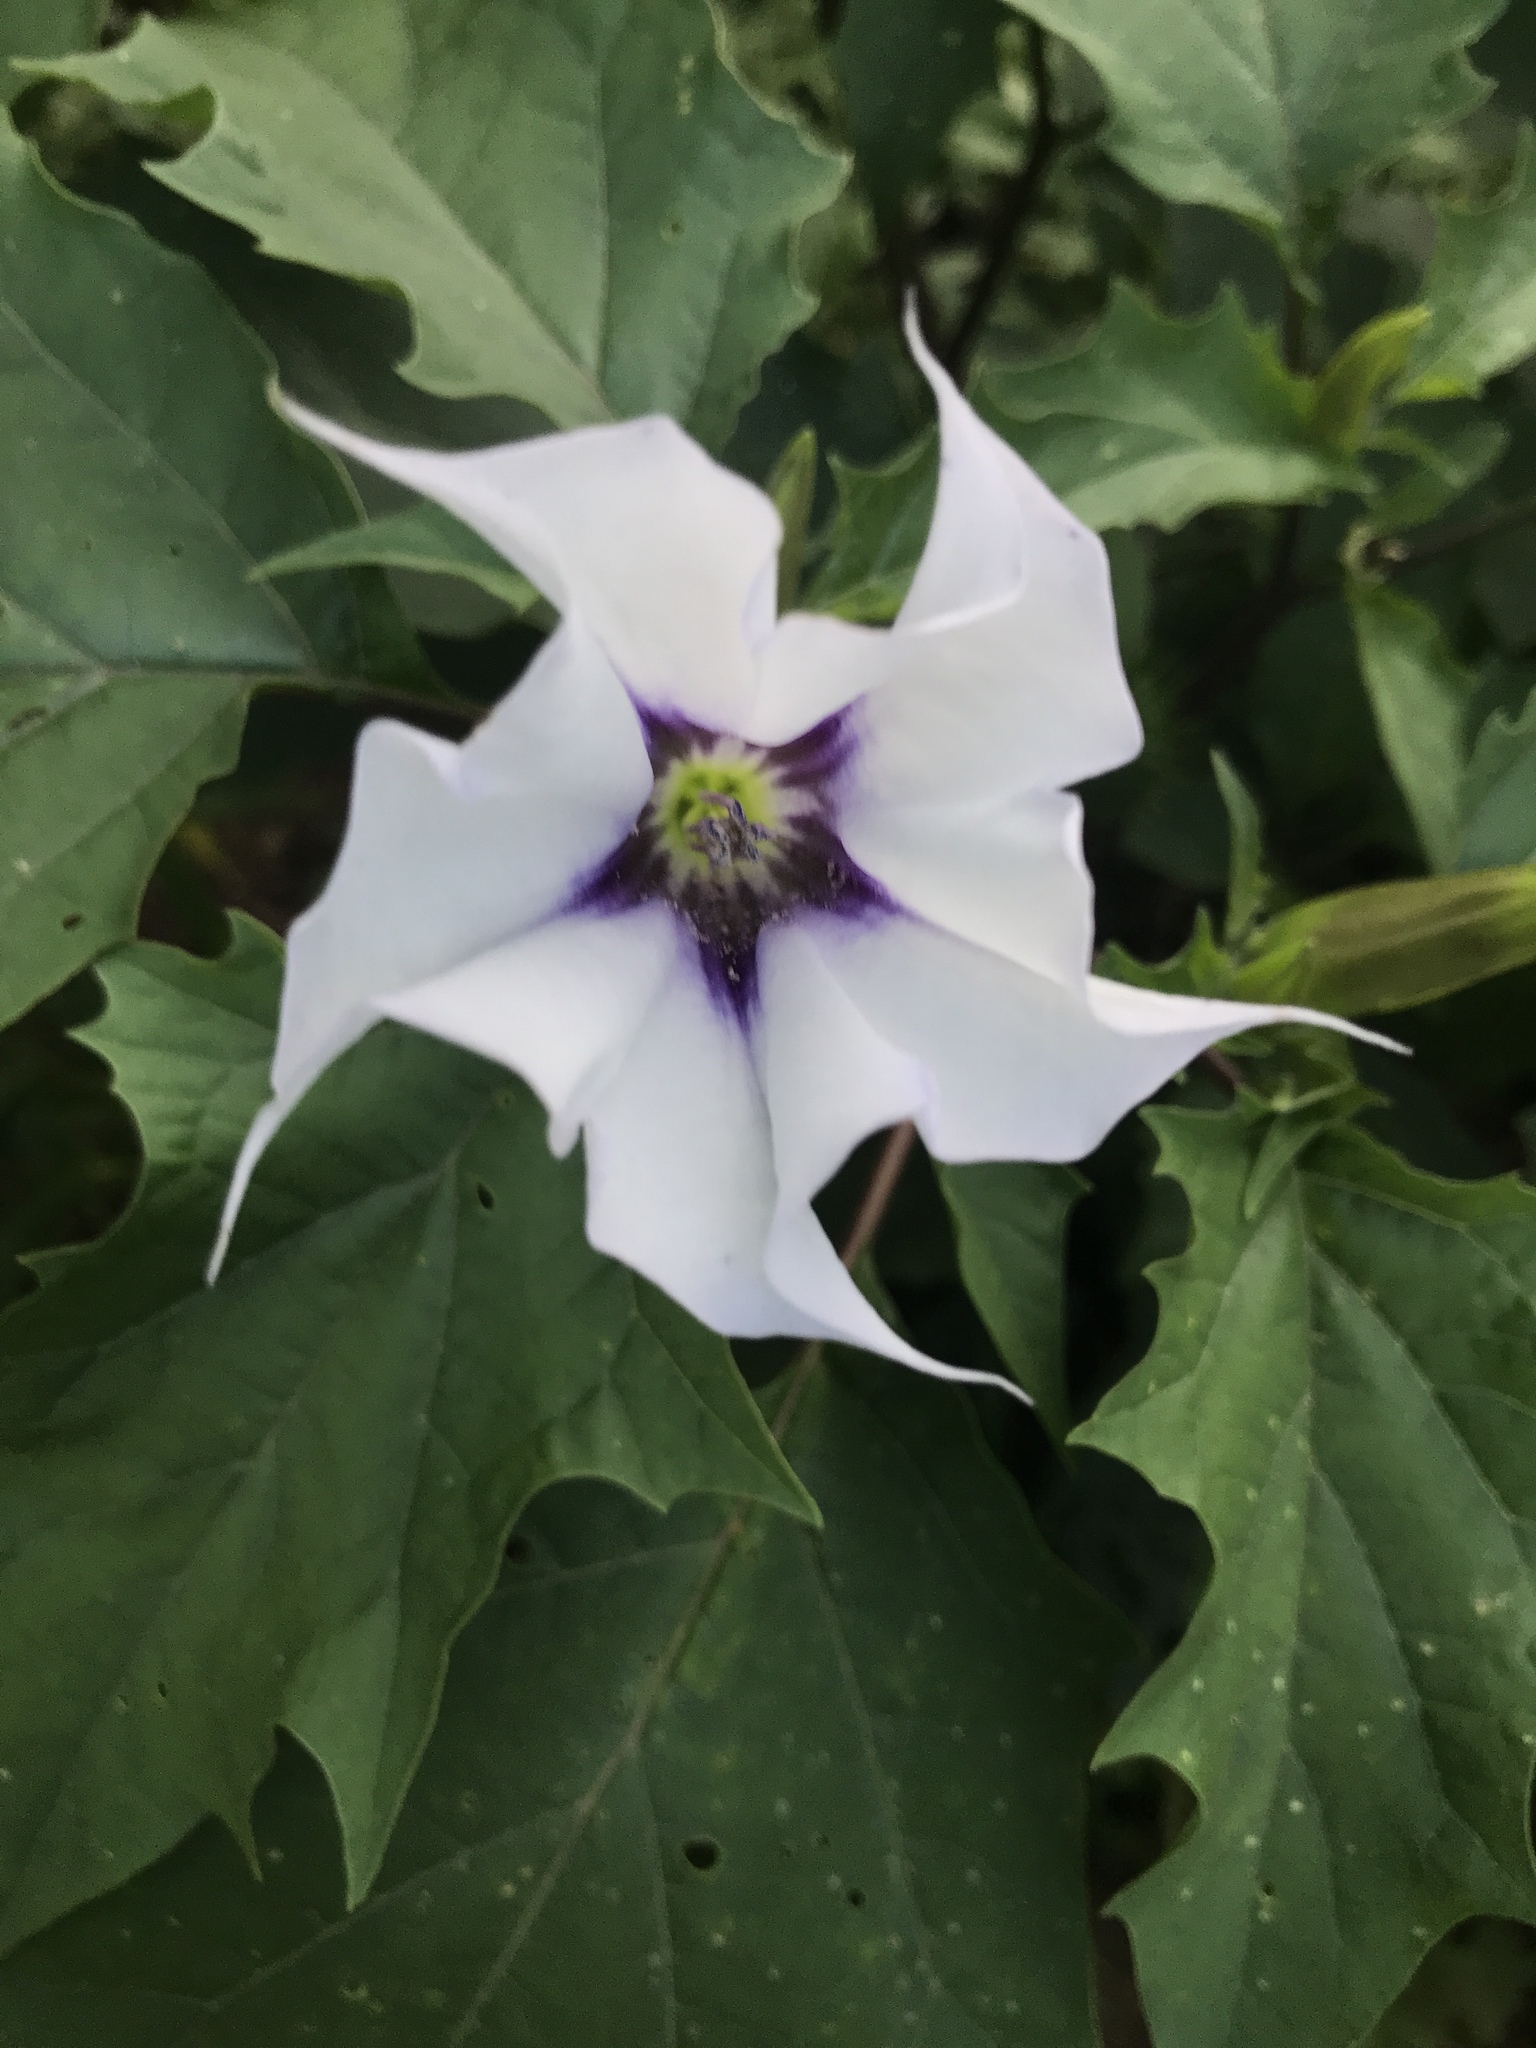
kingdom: Plantae
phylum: Tracheophyta
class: Magnoliopsida
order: Solanales
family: Solanaceae
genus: Datura
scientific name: Datura stramonium
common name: Thorn-apple
